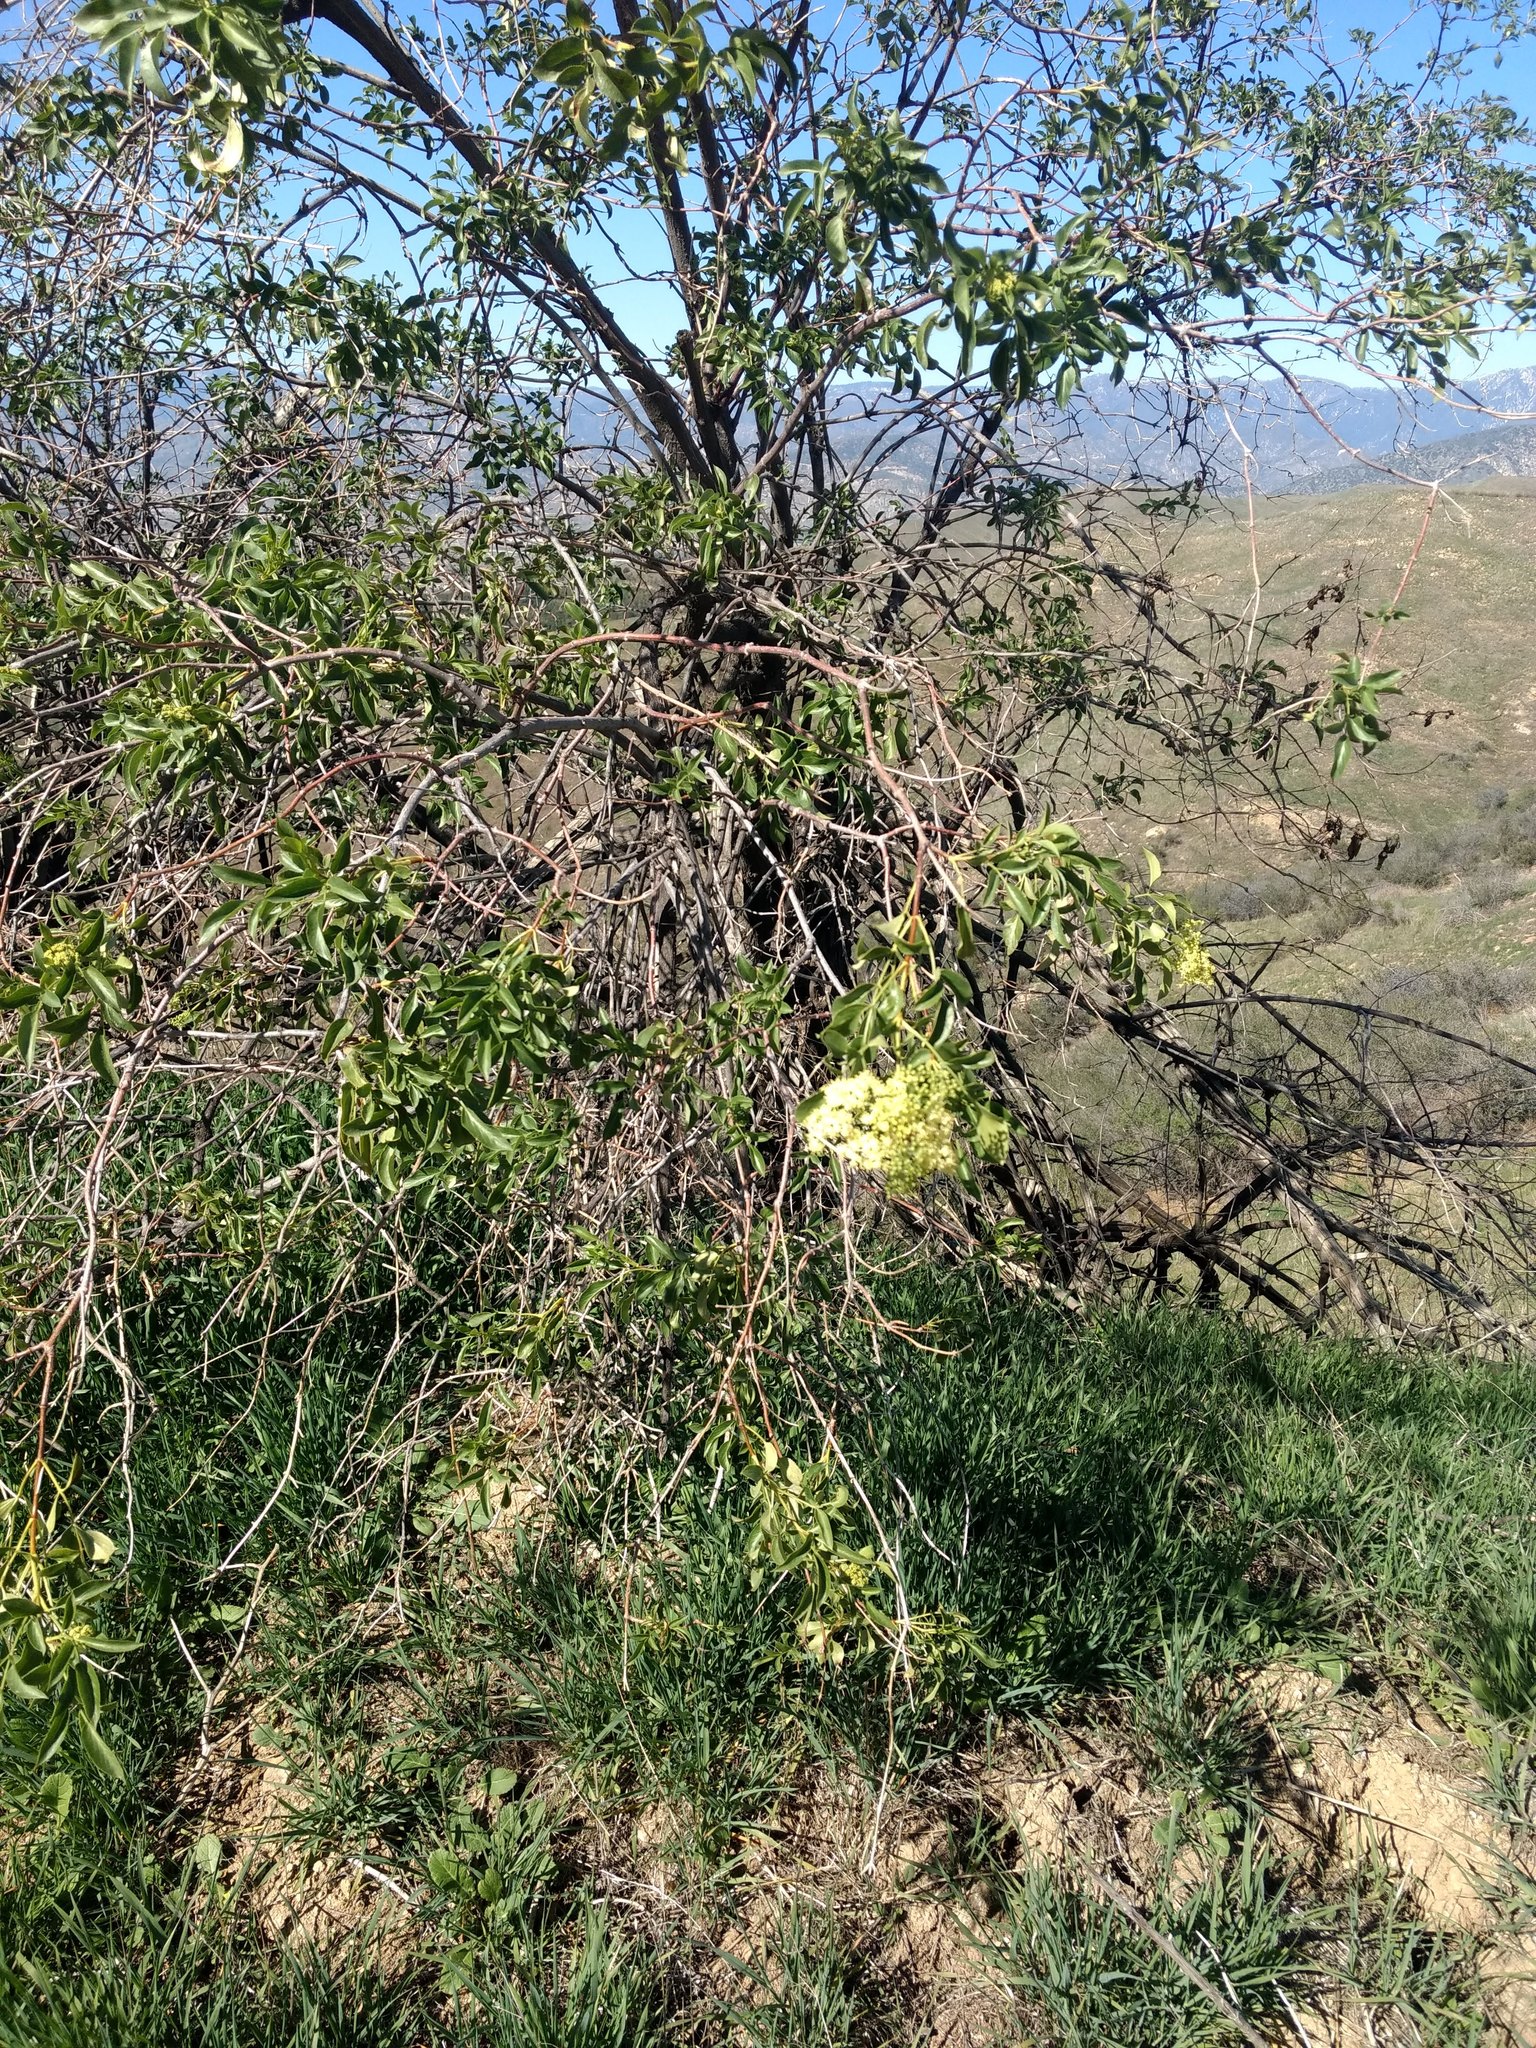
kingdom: Plantae
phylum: Tracheophyta
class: Magnoliopsida
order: Dipsacales
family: Viburnaceae
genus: Sambucus
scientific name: Sambucus cerulea
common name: Blue elder
